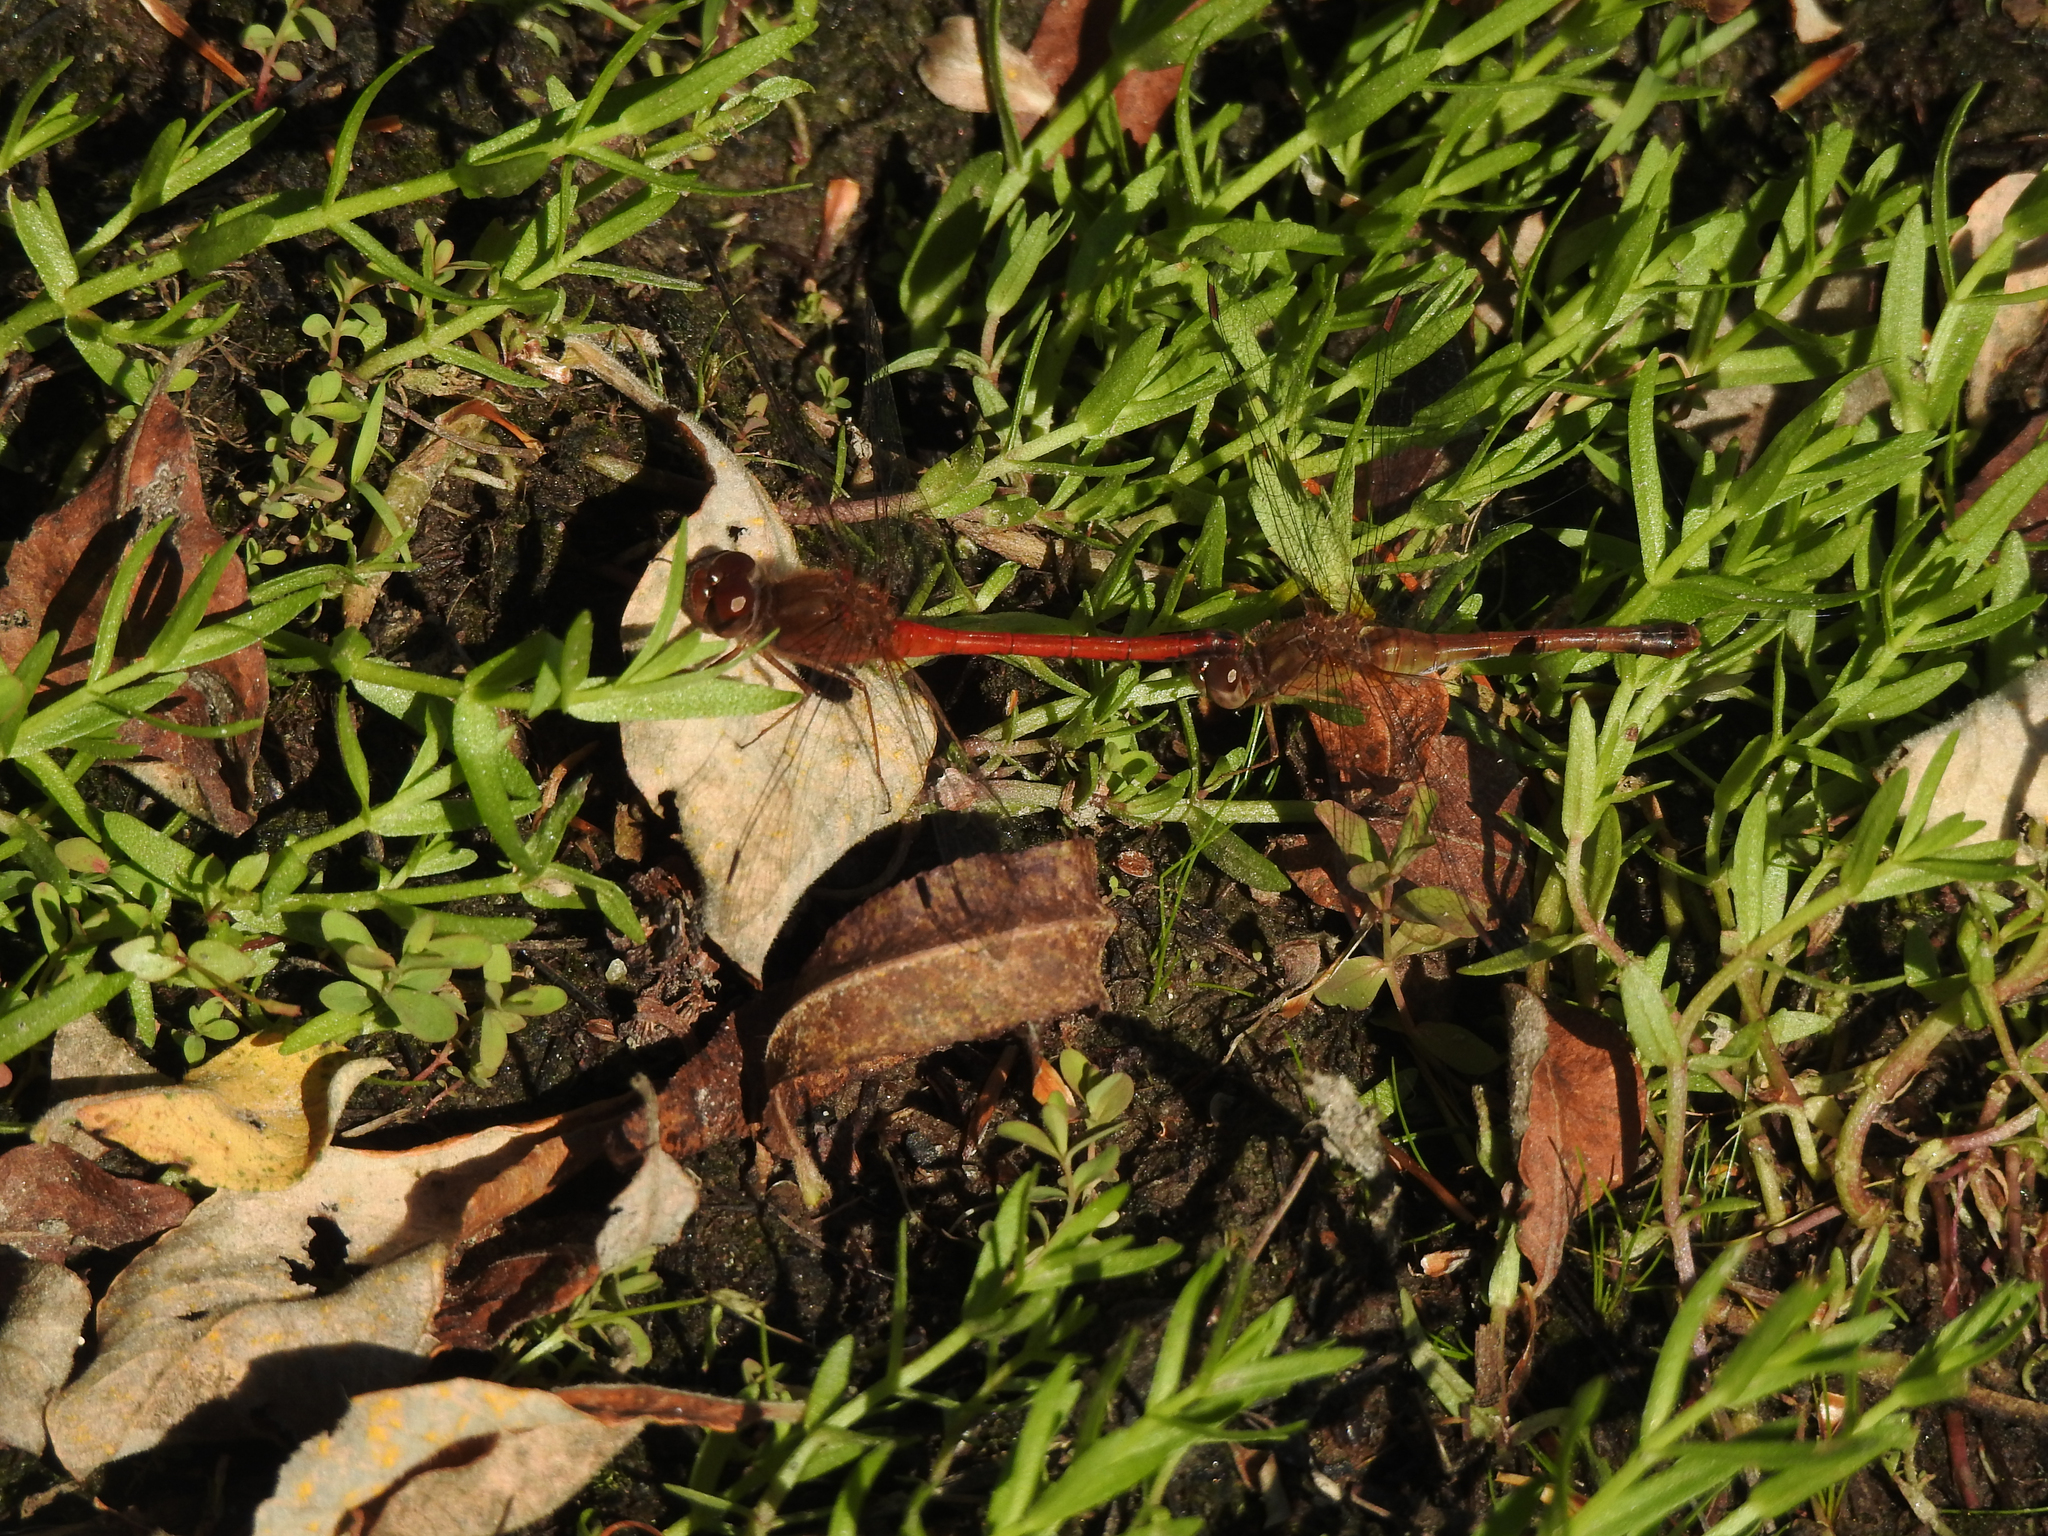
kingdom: Animalia
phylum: Arthropoda
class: Insecta
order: Odonata
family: Libellulidae
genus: Sympetrum
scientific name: Sympetrum vicinum
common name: Autumn meadowhawk
